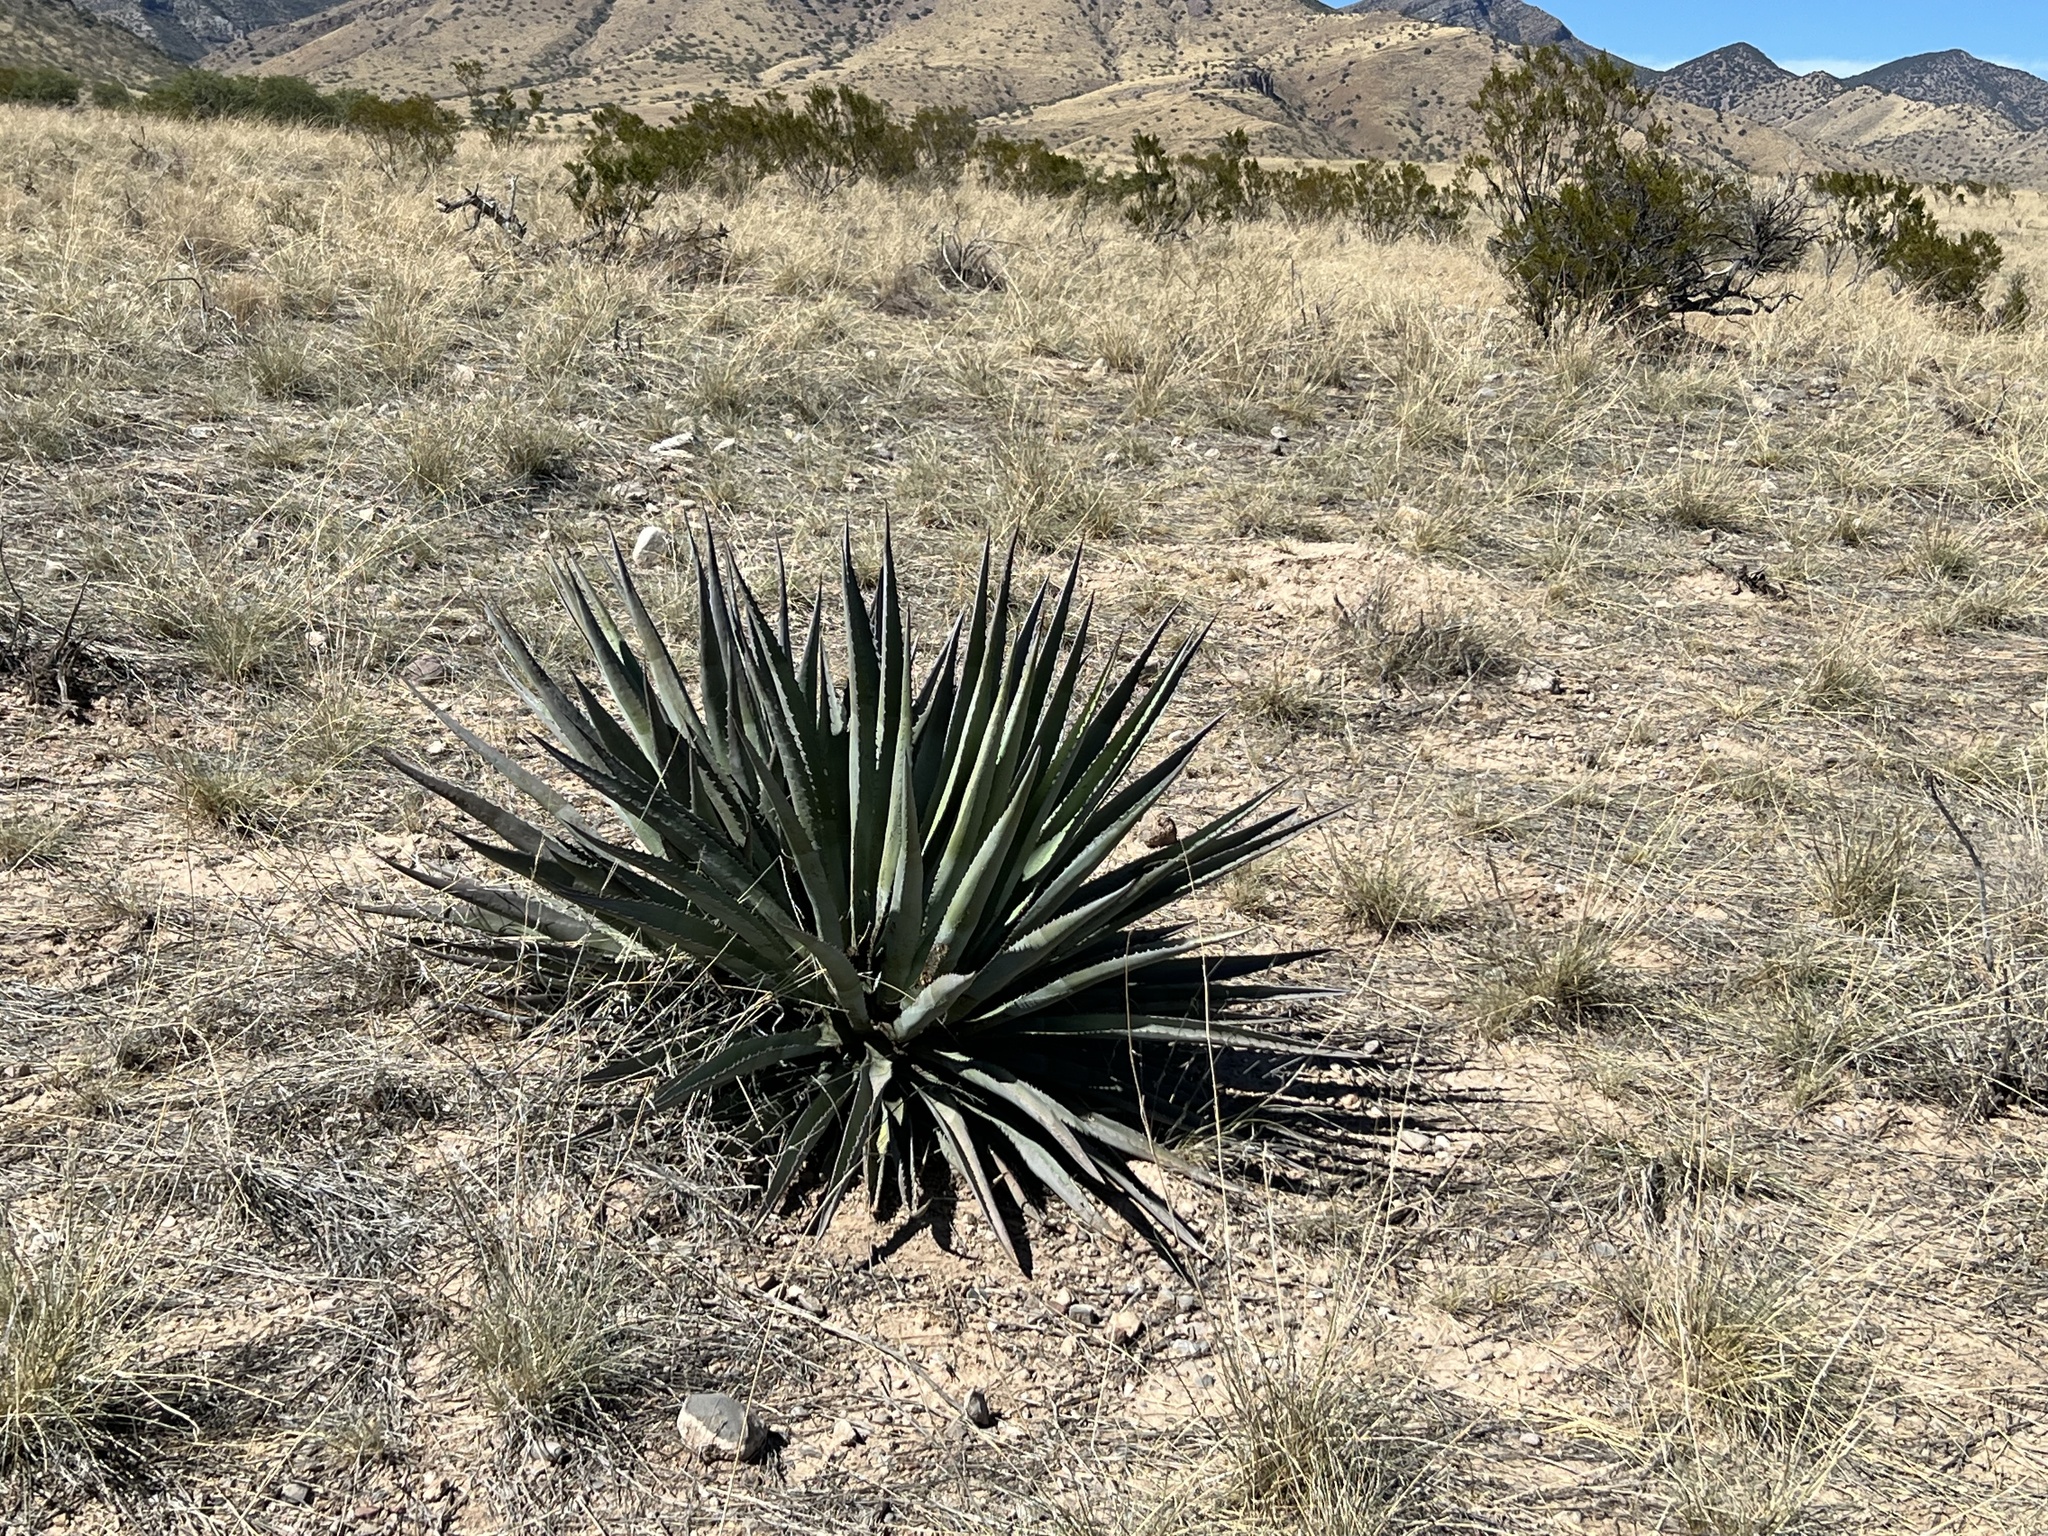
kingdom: Plantae
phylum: Tracheophyta
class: Liliopsida
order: Asparagales
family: Asparagaceae
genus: Agave
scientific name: Agave palmeri
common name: Palmer agave
